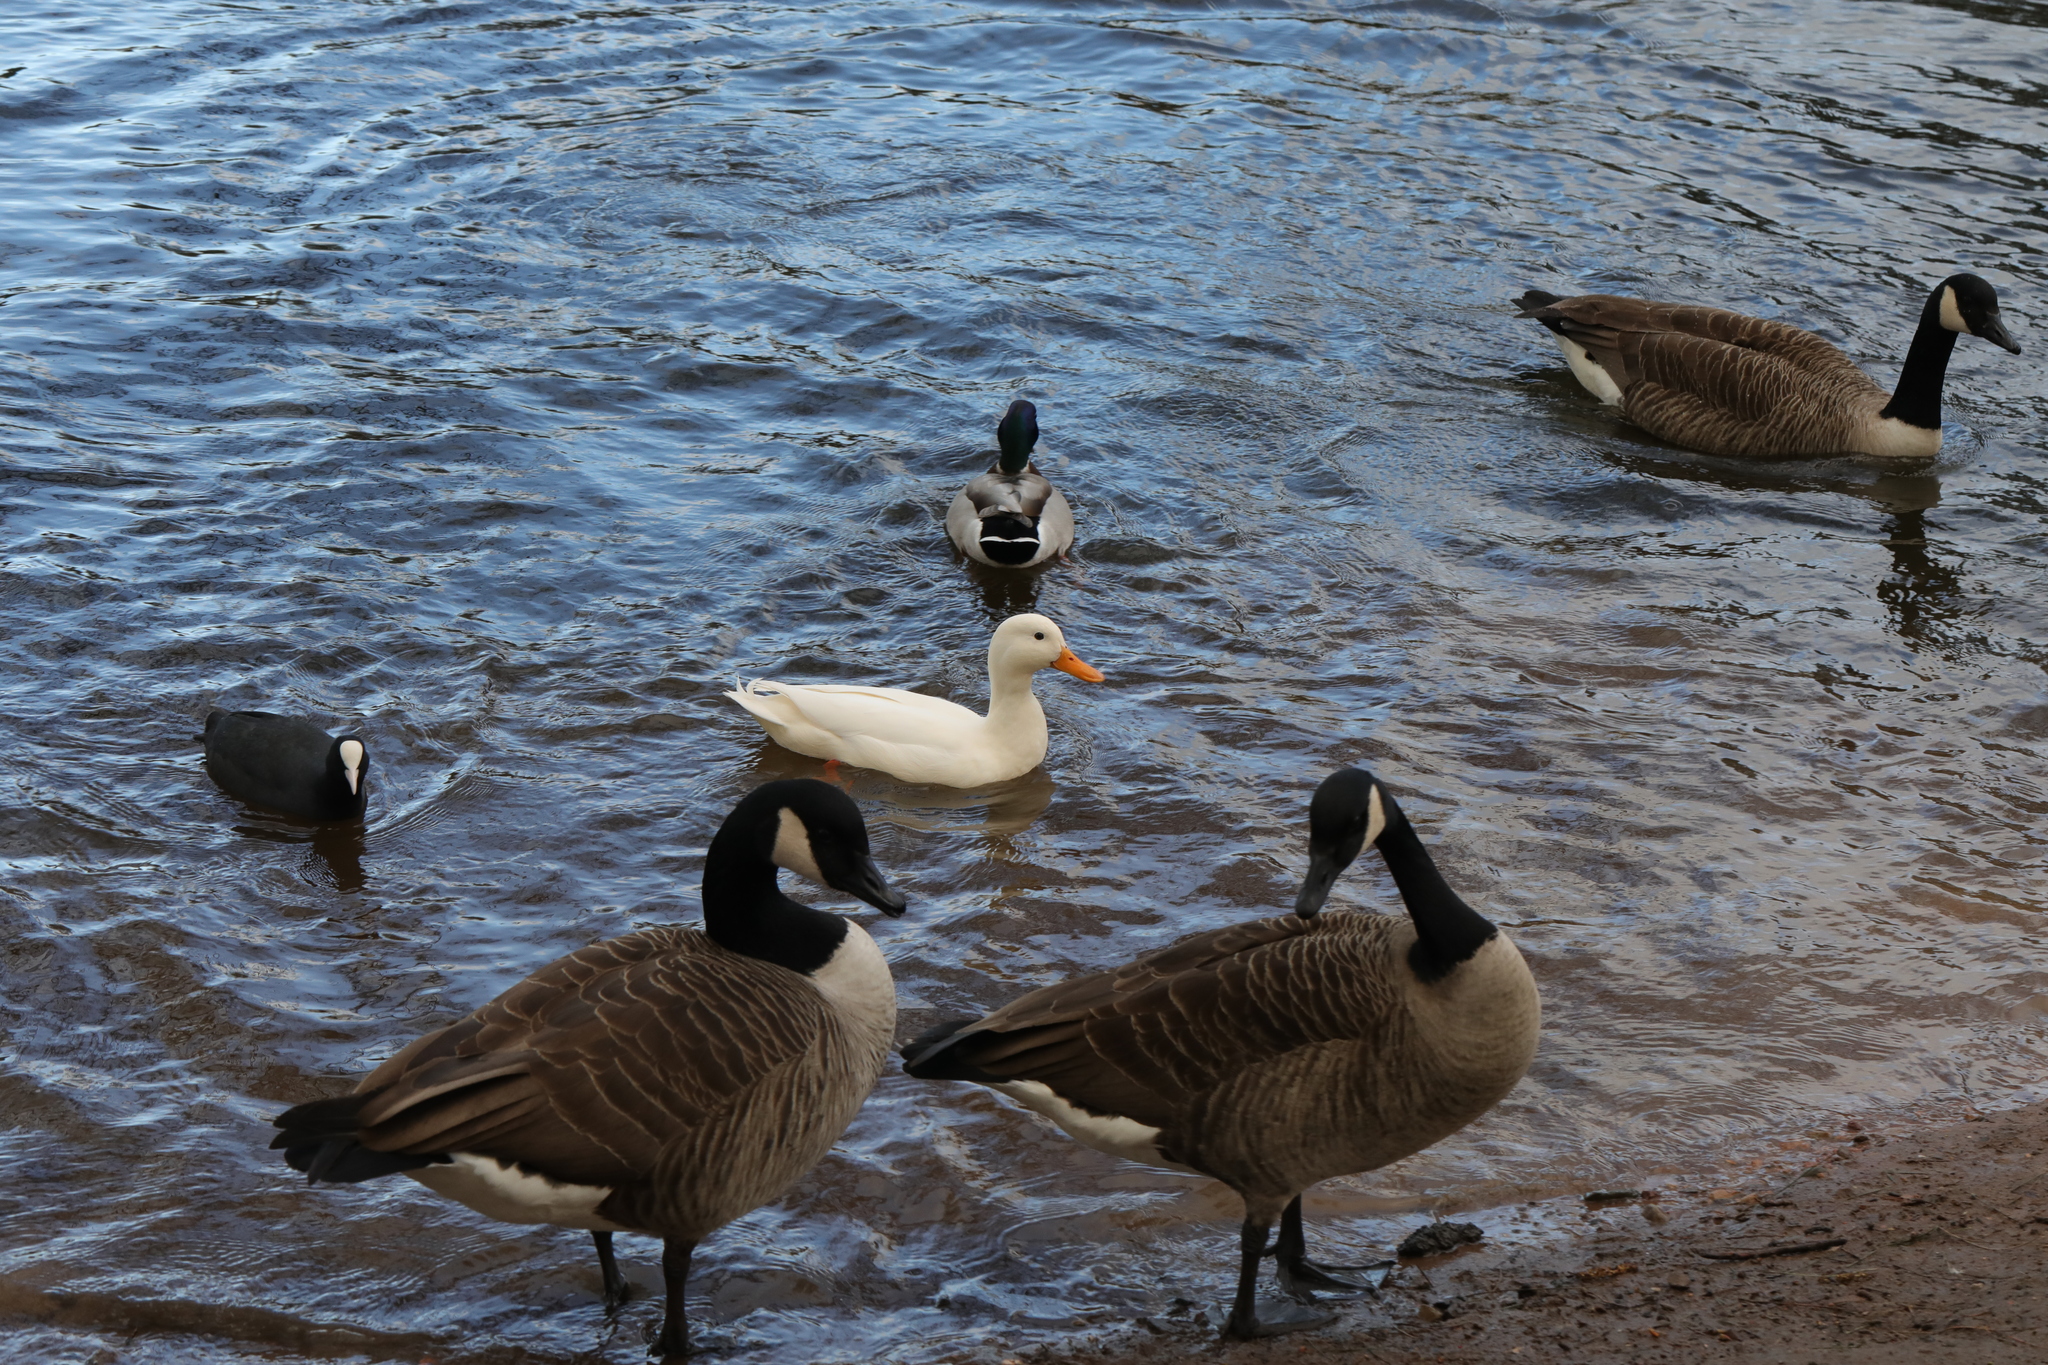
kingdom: Animalia
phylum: Chordata
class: Aves
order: Anseriformes
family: Anatidae
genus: Anas
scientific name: Anas platyrhynchos
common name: Mallard
